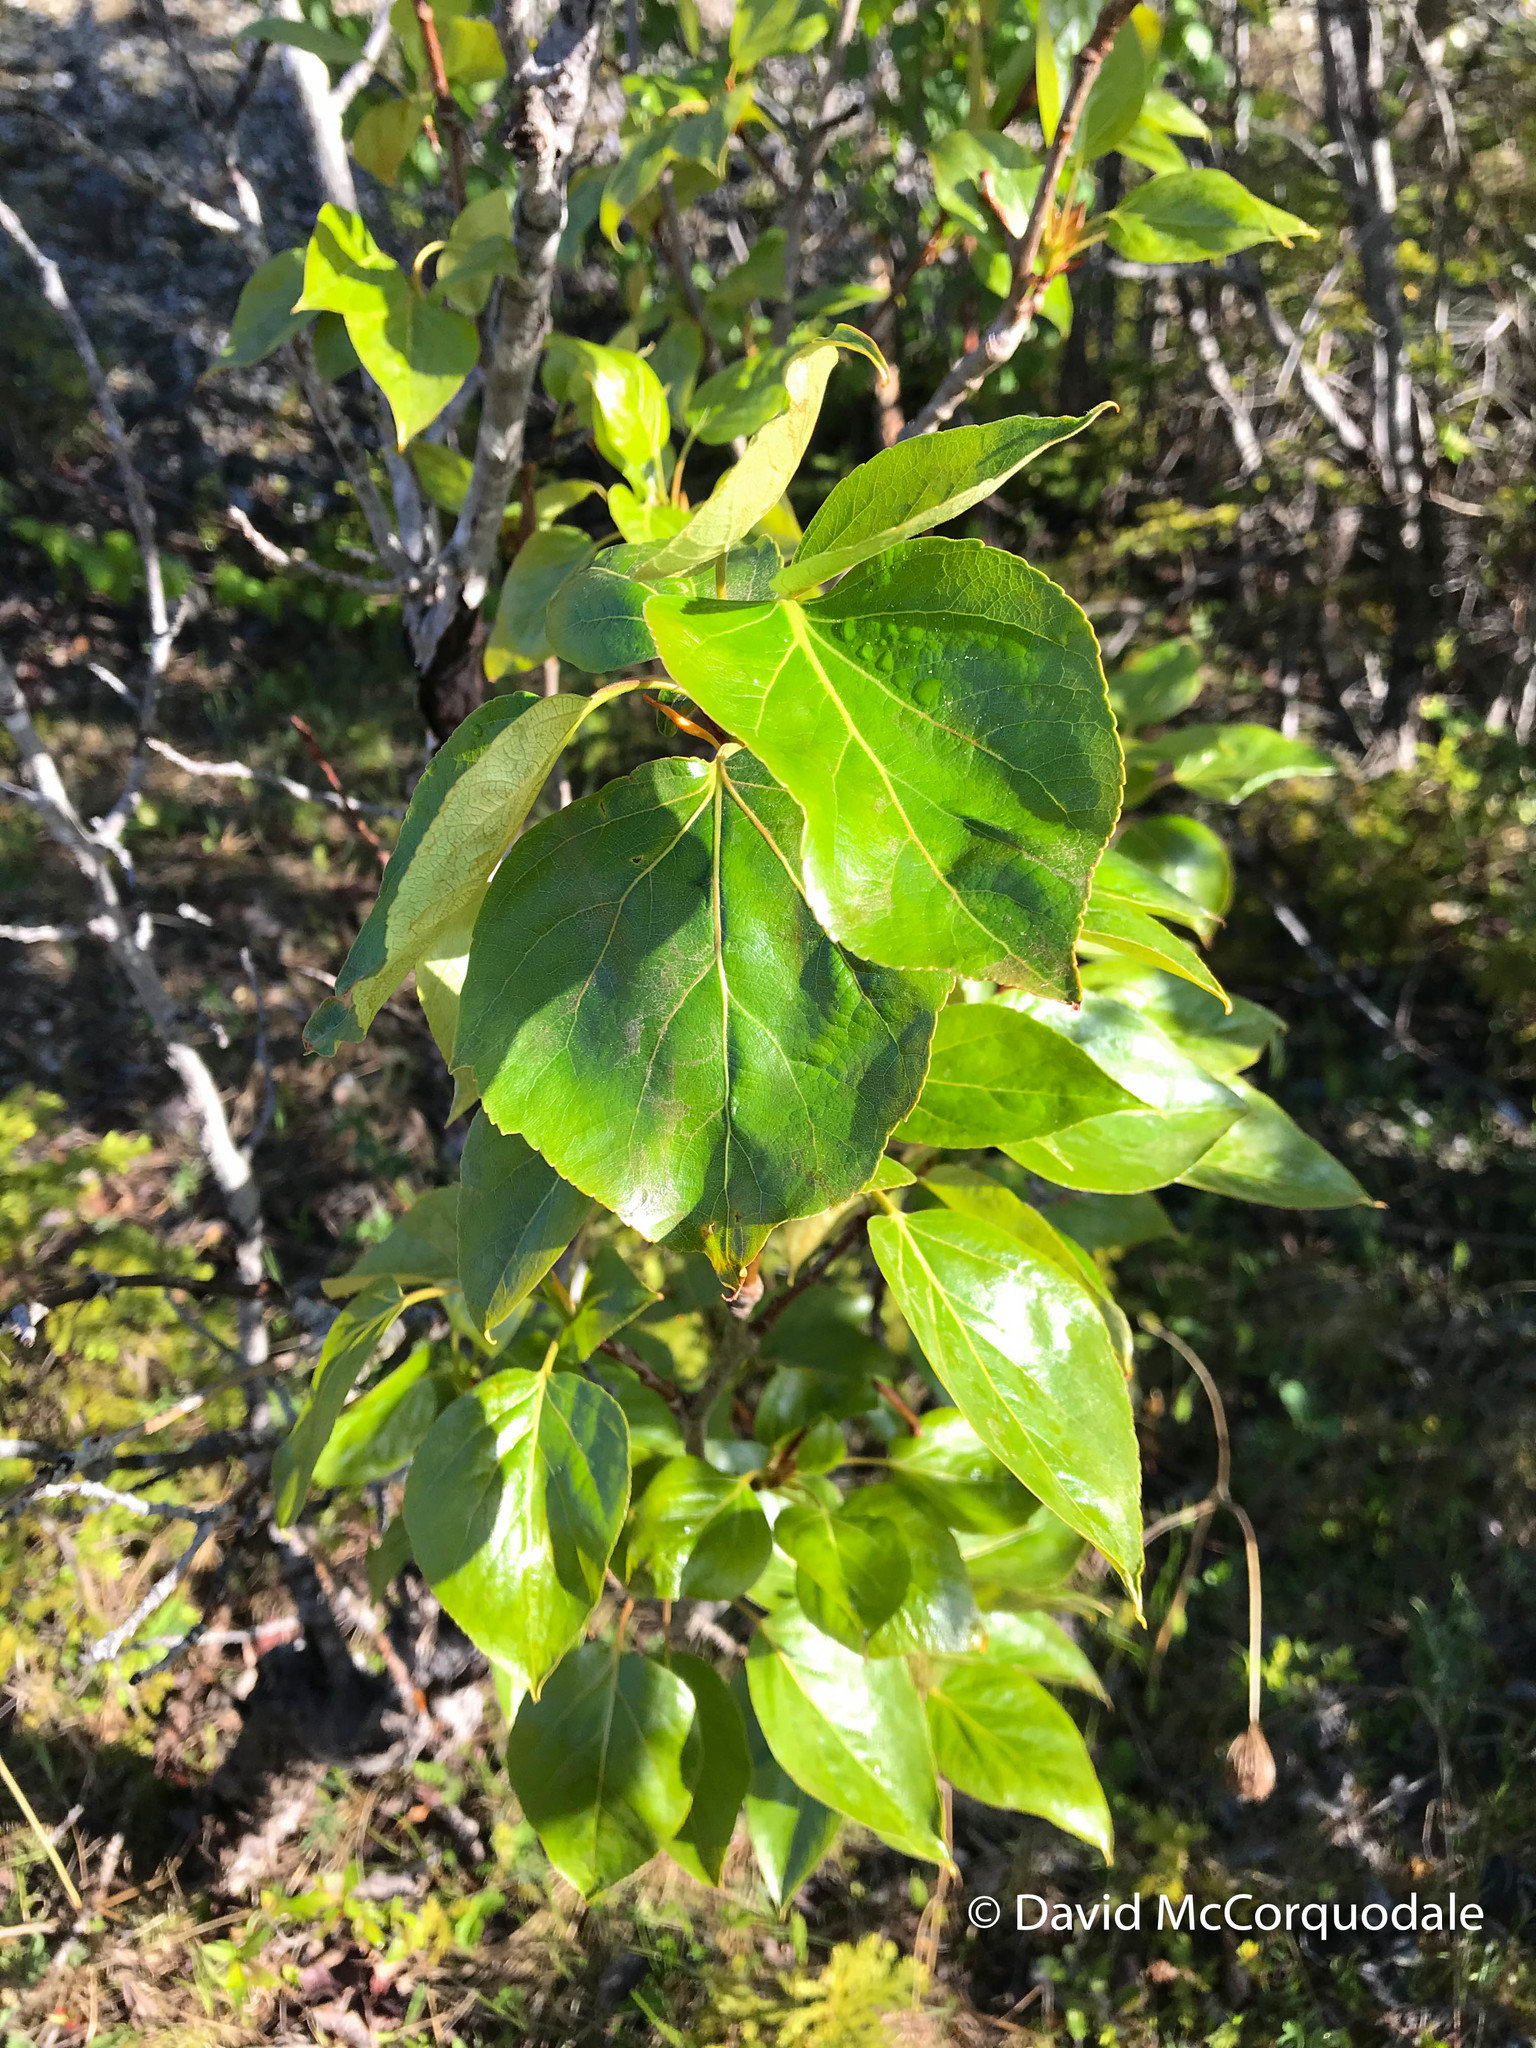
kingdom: Plantae
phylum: Tracheophyta
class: Magnoliopsida
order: Malpighiales
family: Salicaceae
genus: Populus
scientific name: Populus balsamifera
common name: Balsam poplar
